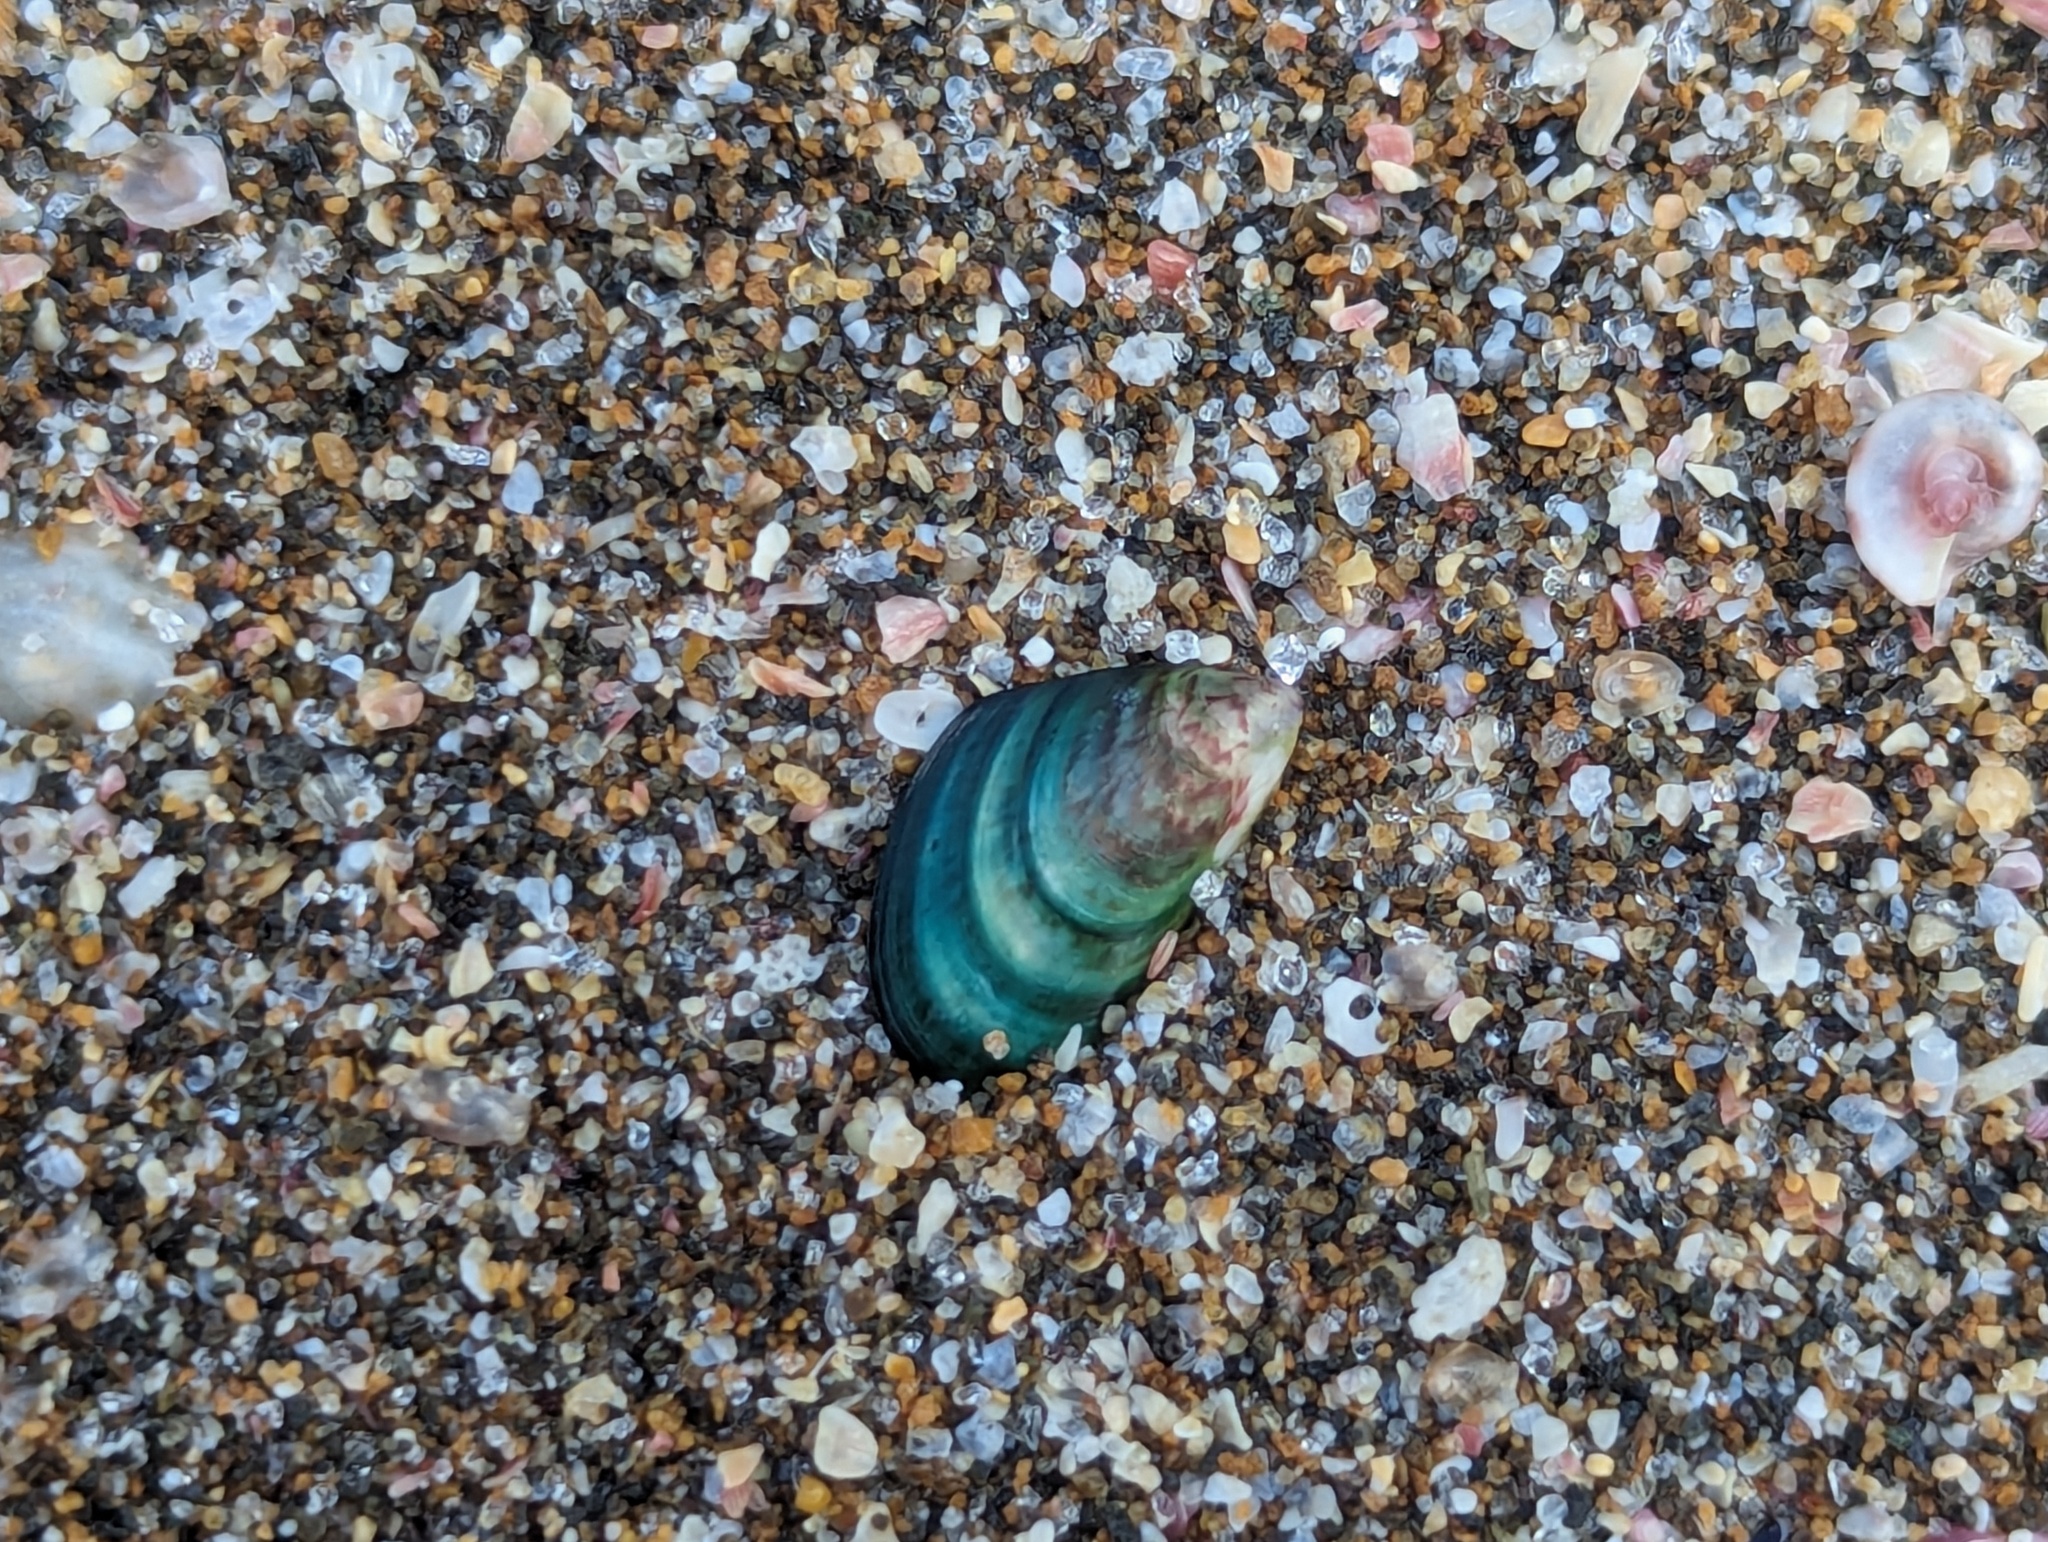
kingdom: Animalia
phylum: Mollusca
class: Bivalvia
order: Mytilida
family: Mytilidae
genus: Perna
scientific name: Perna canaliculus
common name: New zealand greenshelltm
